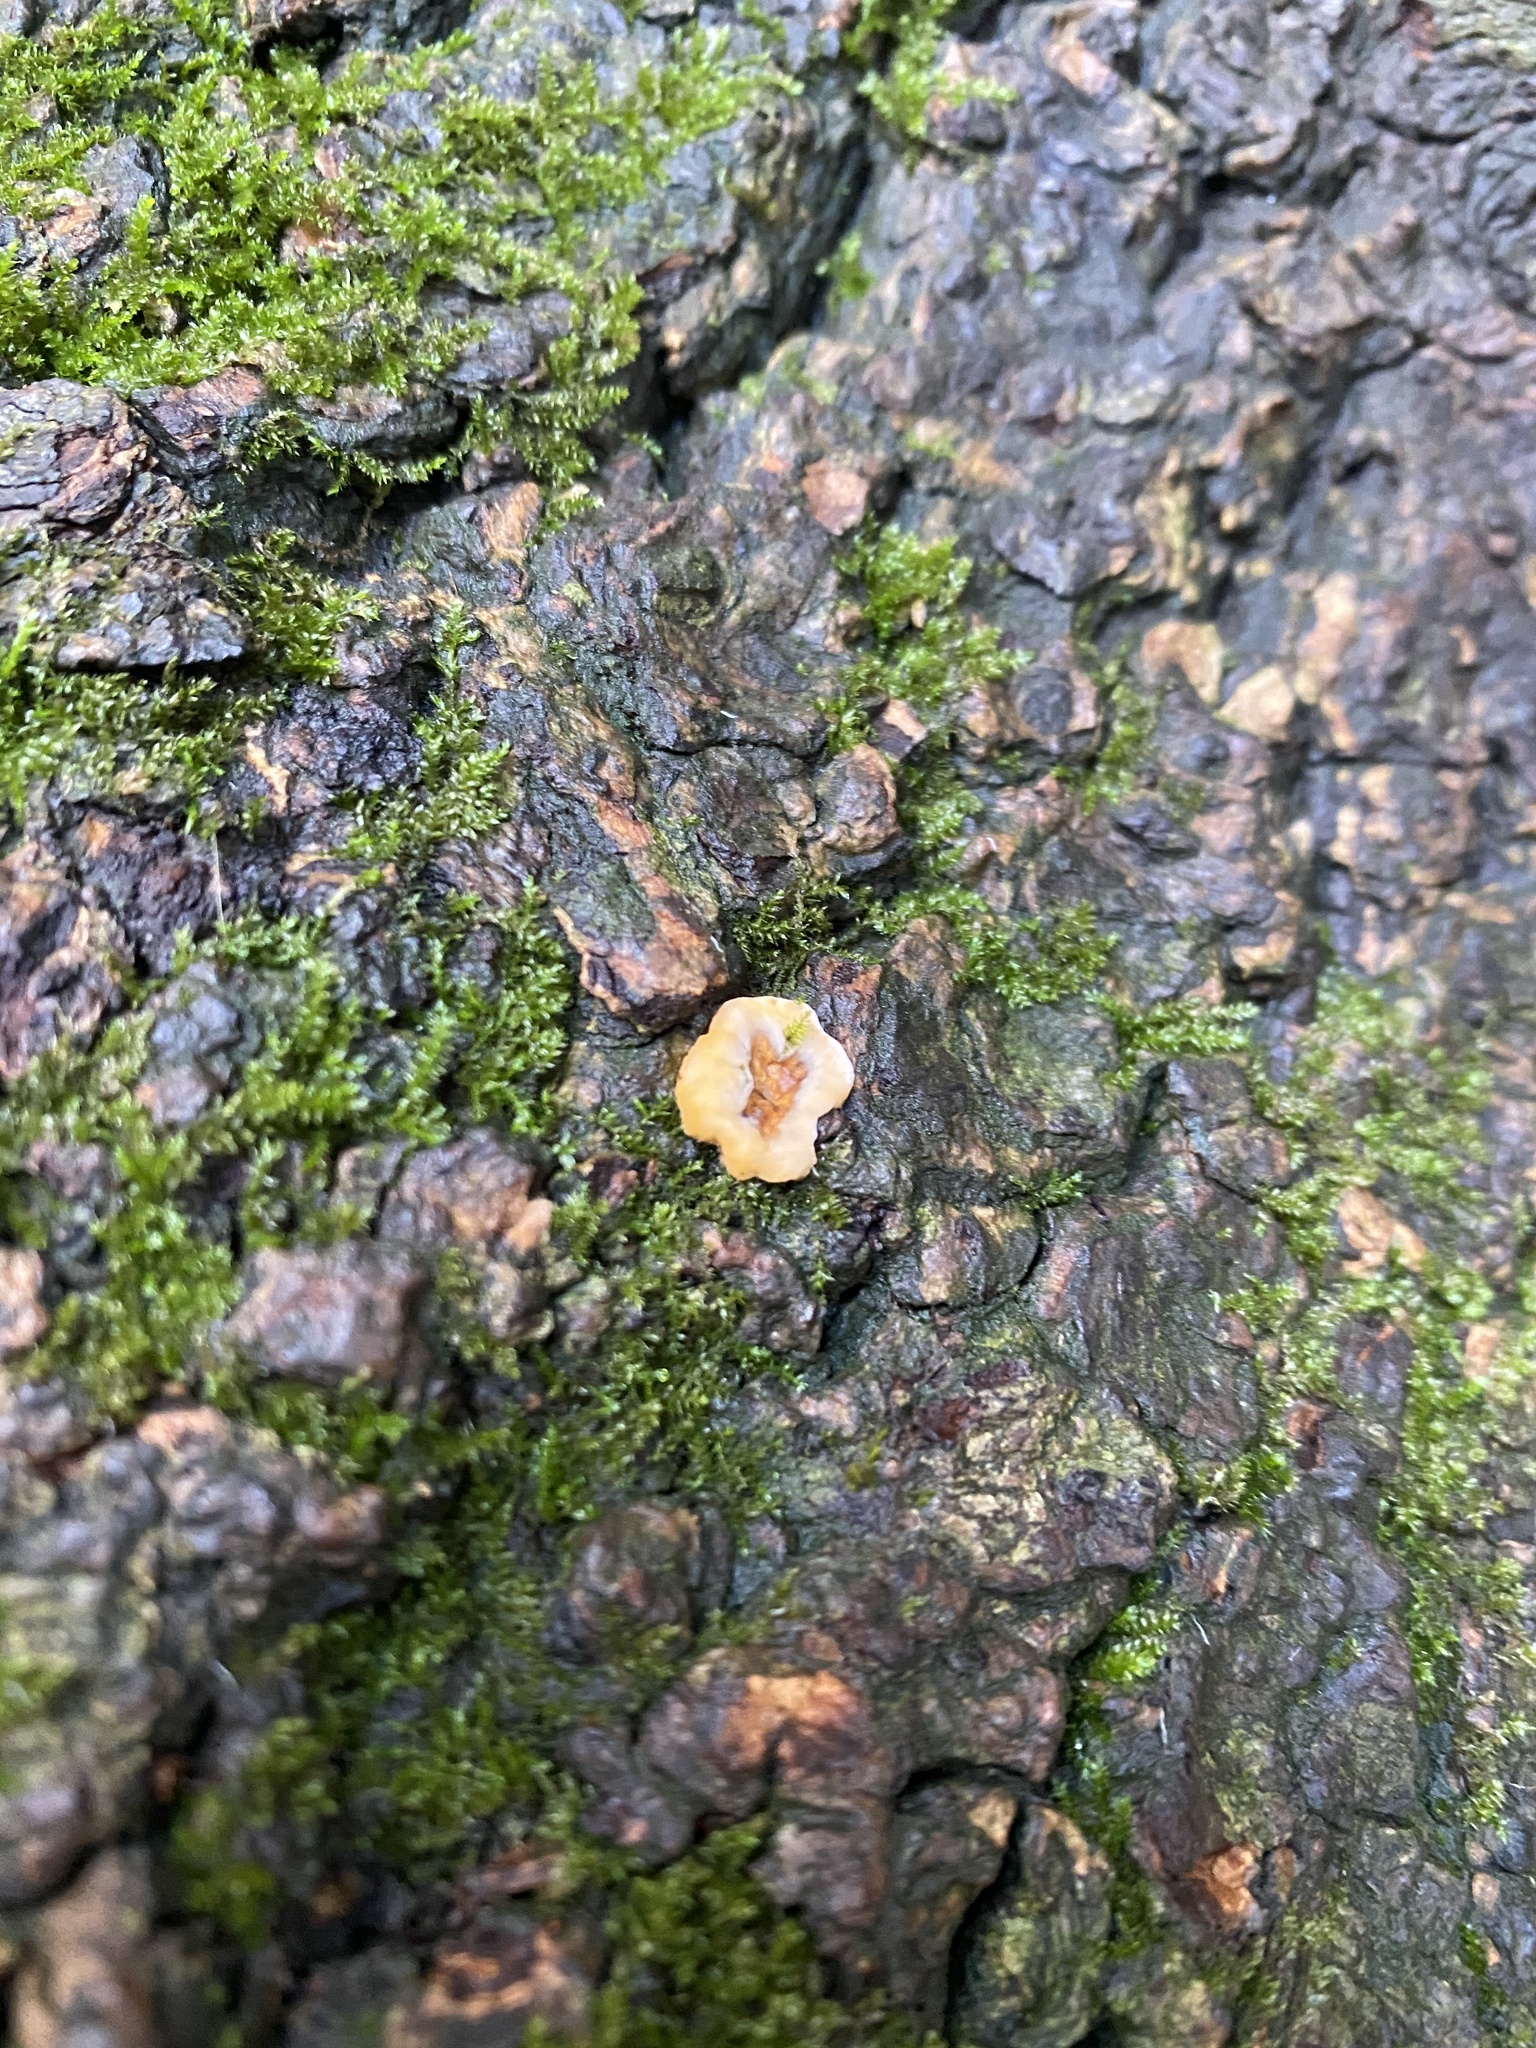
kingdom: Fungi
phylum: Basidiomycota
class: Agaricomycetes
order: Russulales
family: Stereaceae
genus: Stereum
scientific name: Stereum hirsutum
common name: Hairy curtain crust
